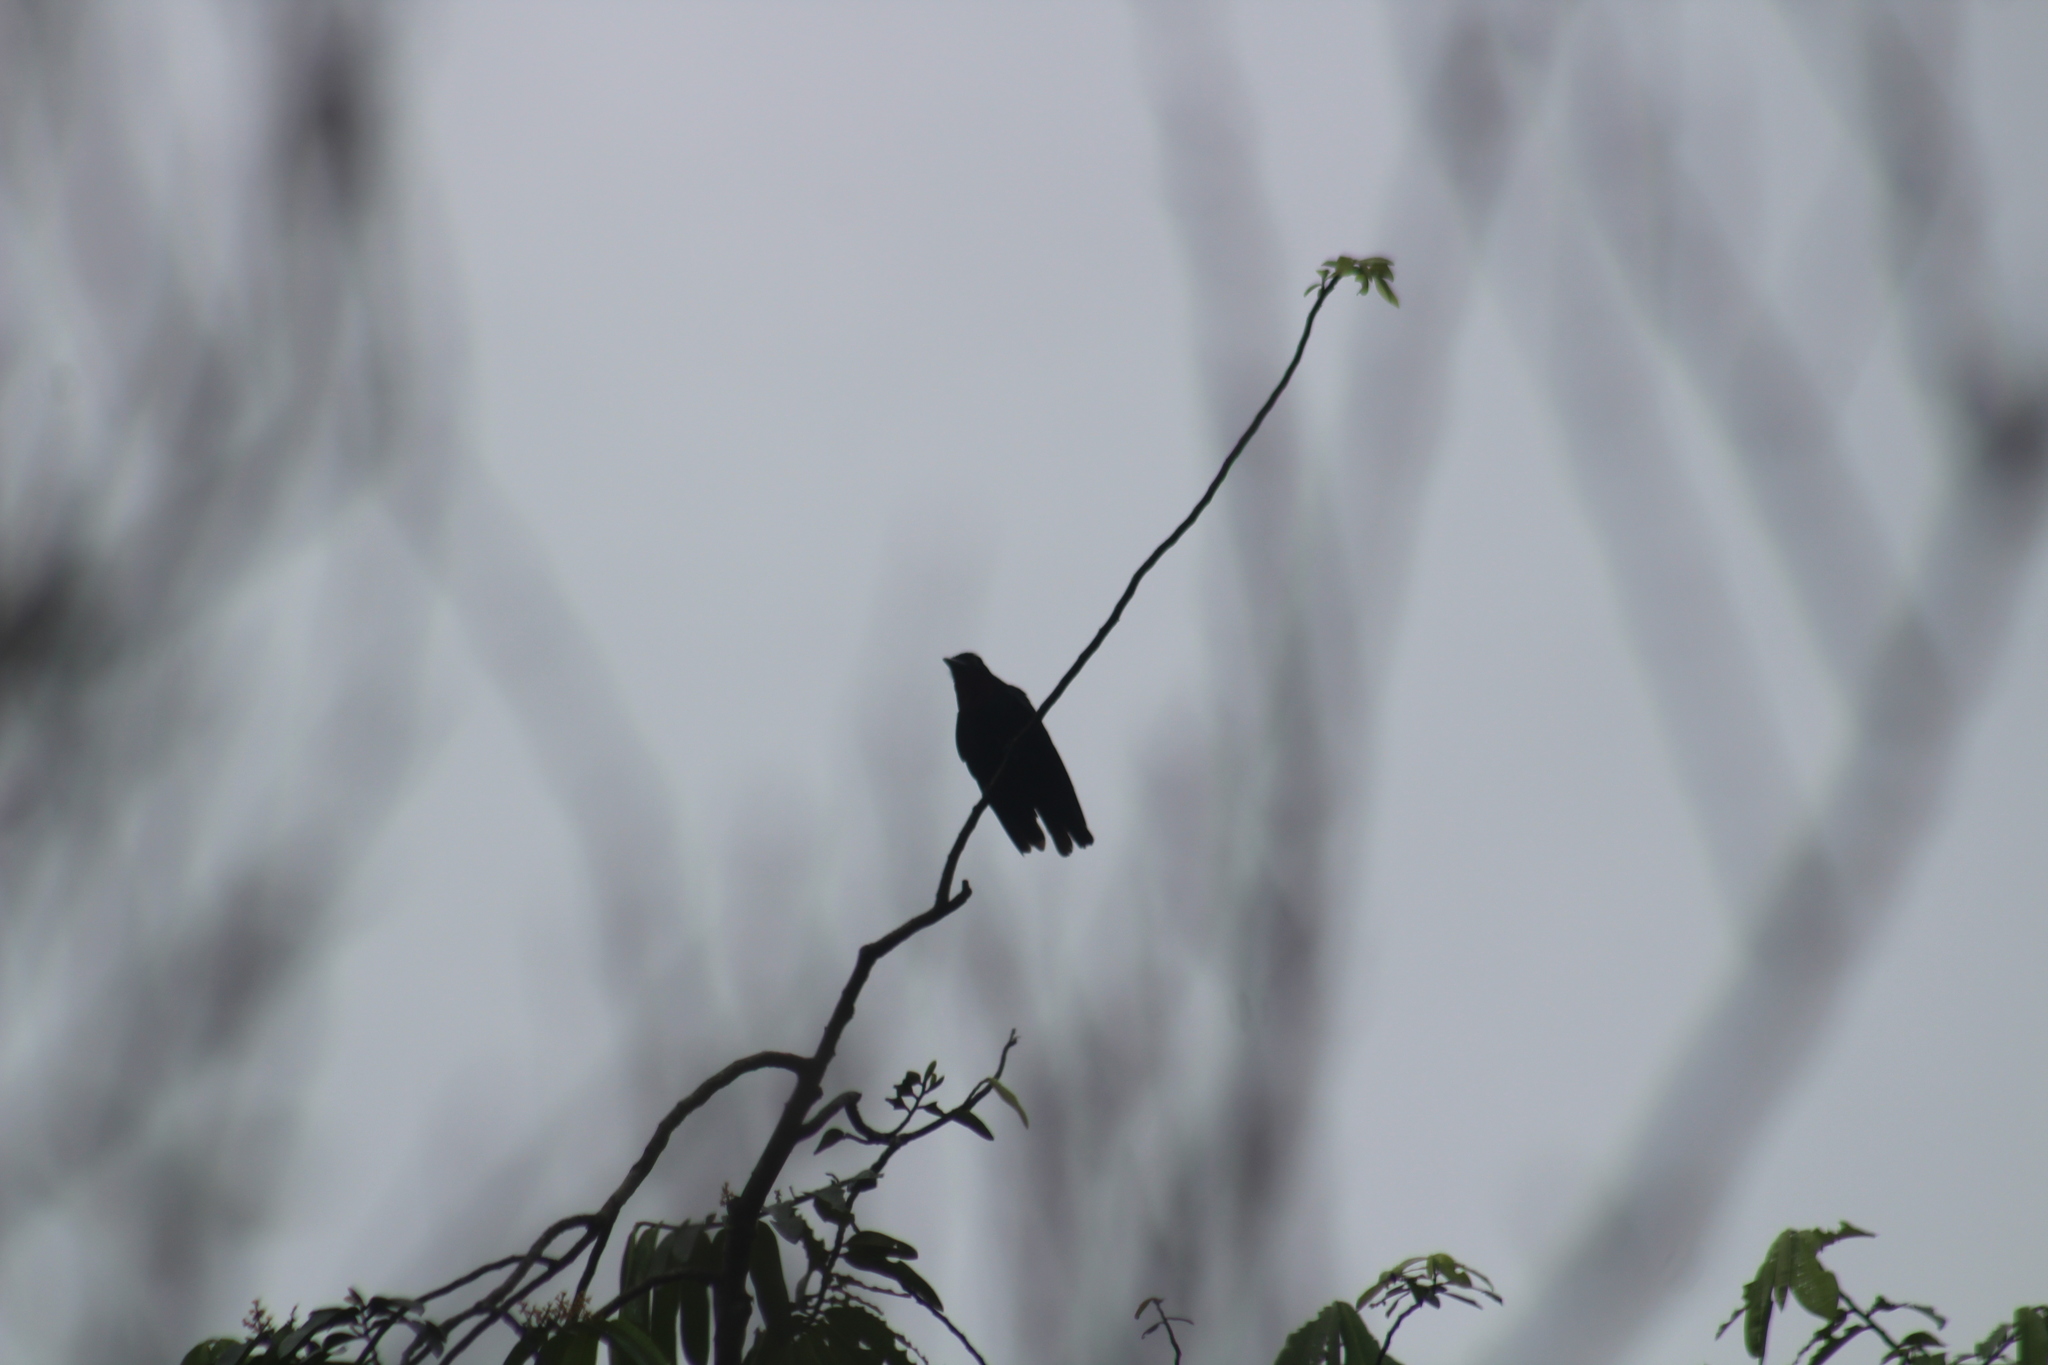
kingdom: Animalia
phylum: Chordata
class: Aves
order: Passeriformes
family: Cotingidae
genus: Querula
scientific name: Querula purpurata
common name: Purple-throated fruitcrow
